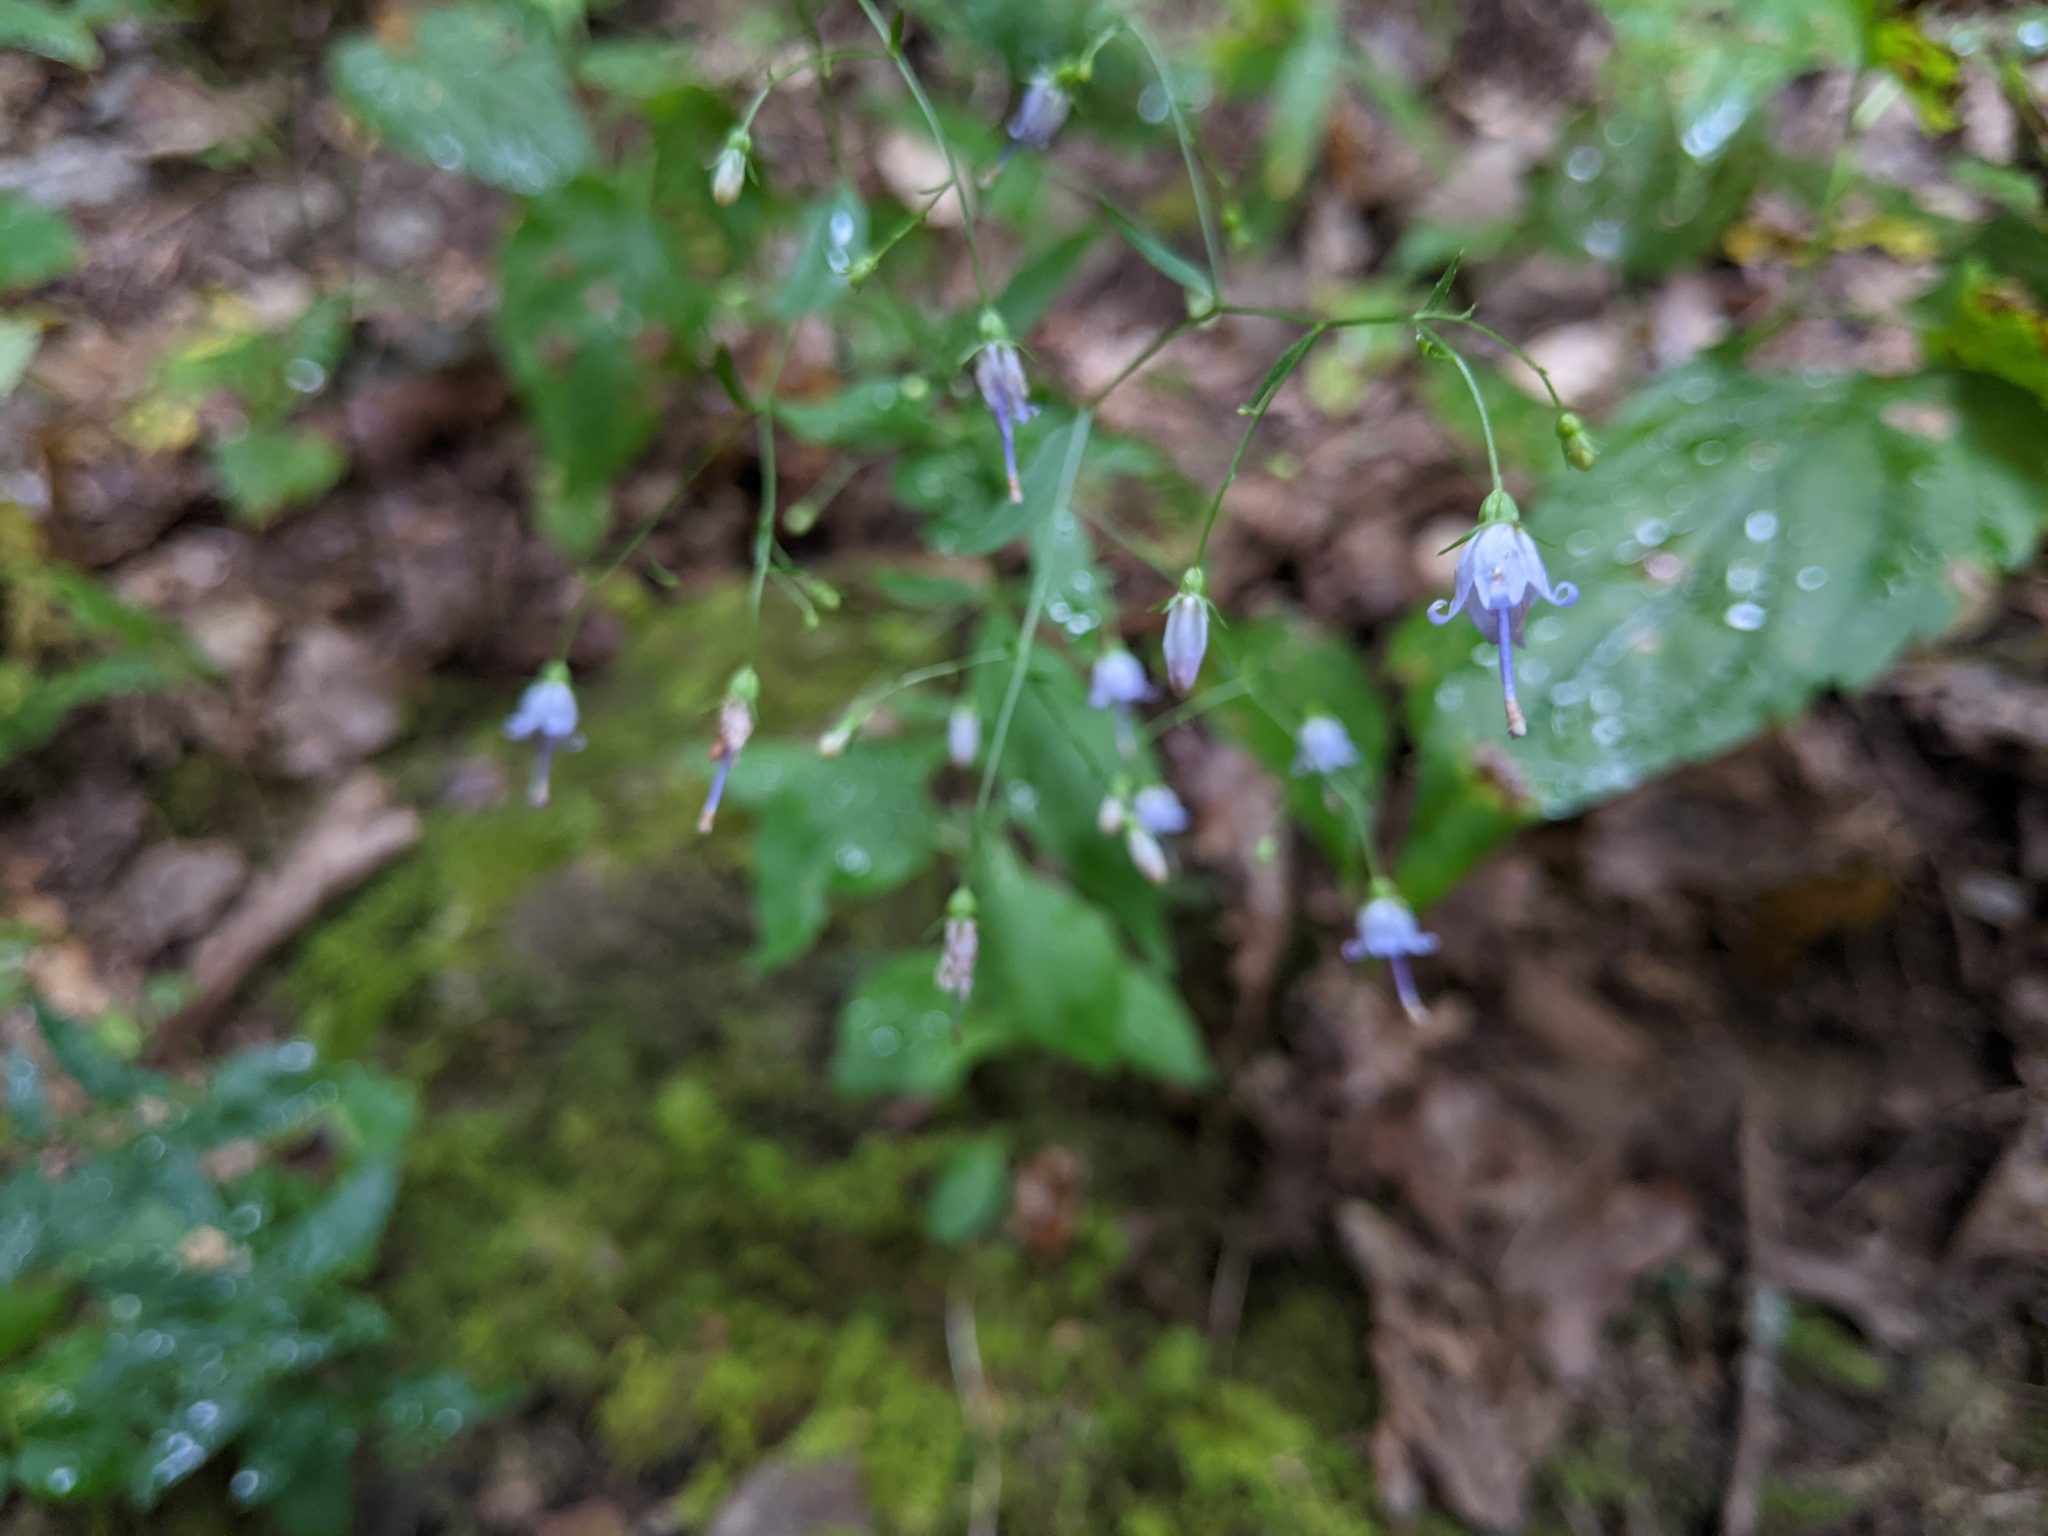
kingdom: Plantae
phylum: Tracheophyta
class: Magnoliopsida
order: Asterales
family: Campanulaceae
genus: Campanula
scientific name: Campanula divaricata
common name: Appalachian bellflower
